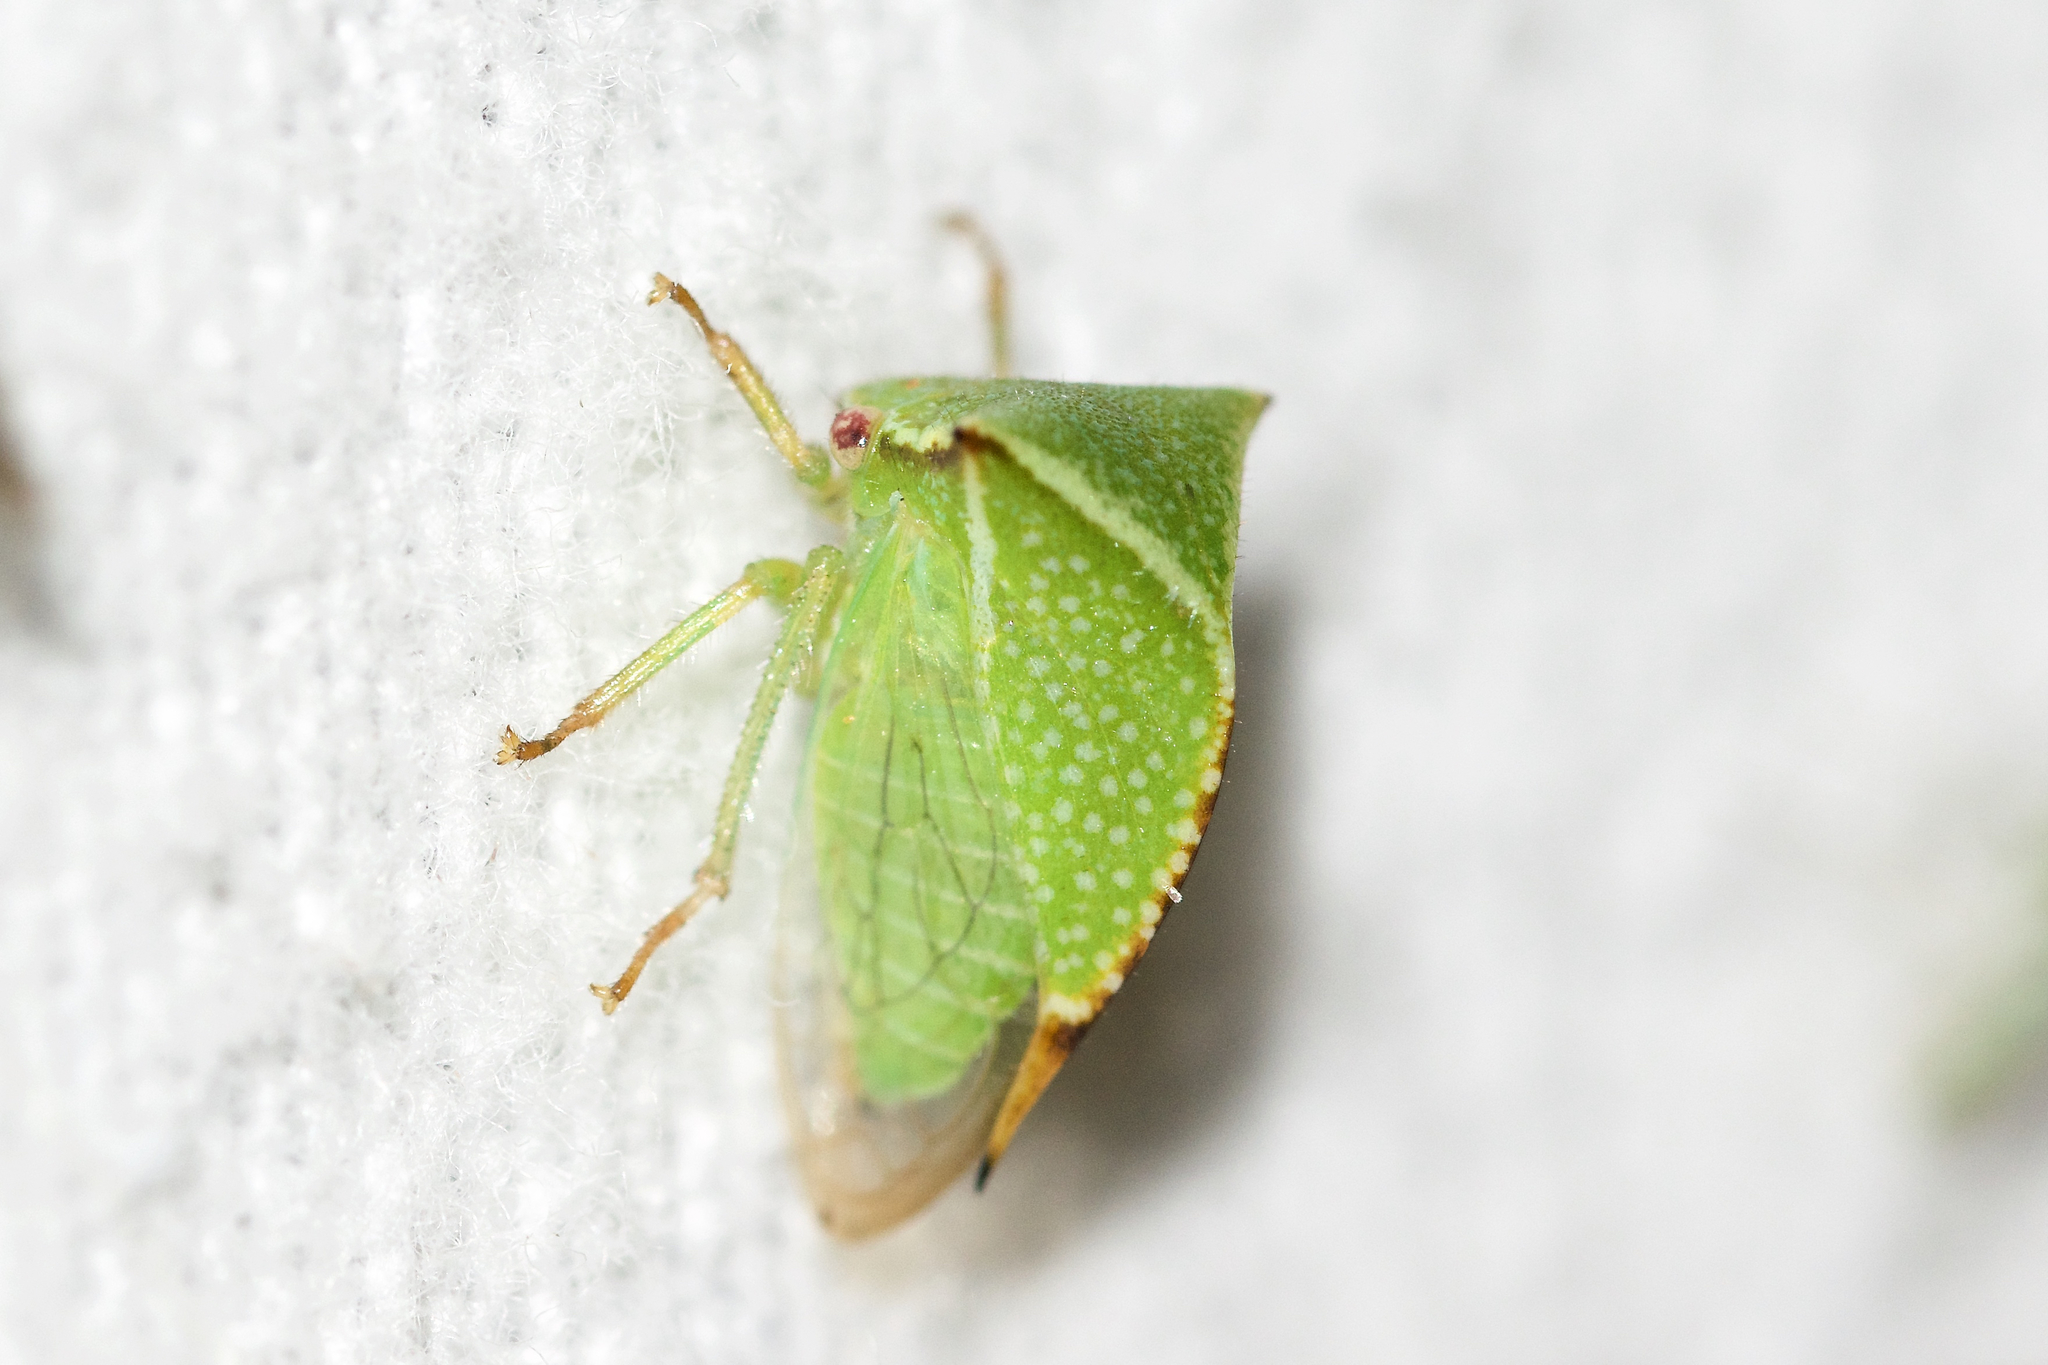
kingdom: Animalia
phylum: Arthropoda
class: Insecta
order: Hemiptera
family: Membracidae
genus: Stictocephala
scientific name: Stictocephala bisonia
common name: American buffalo treehopper
